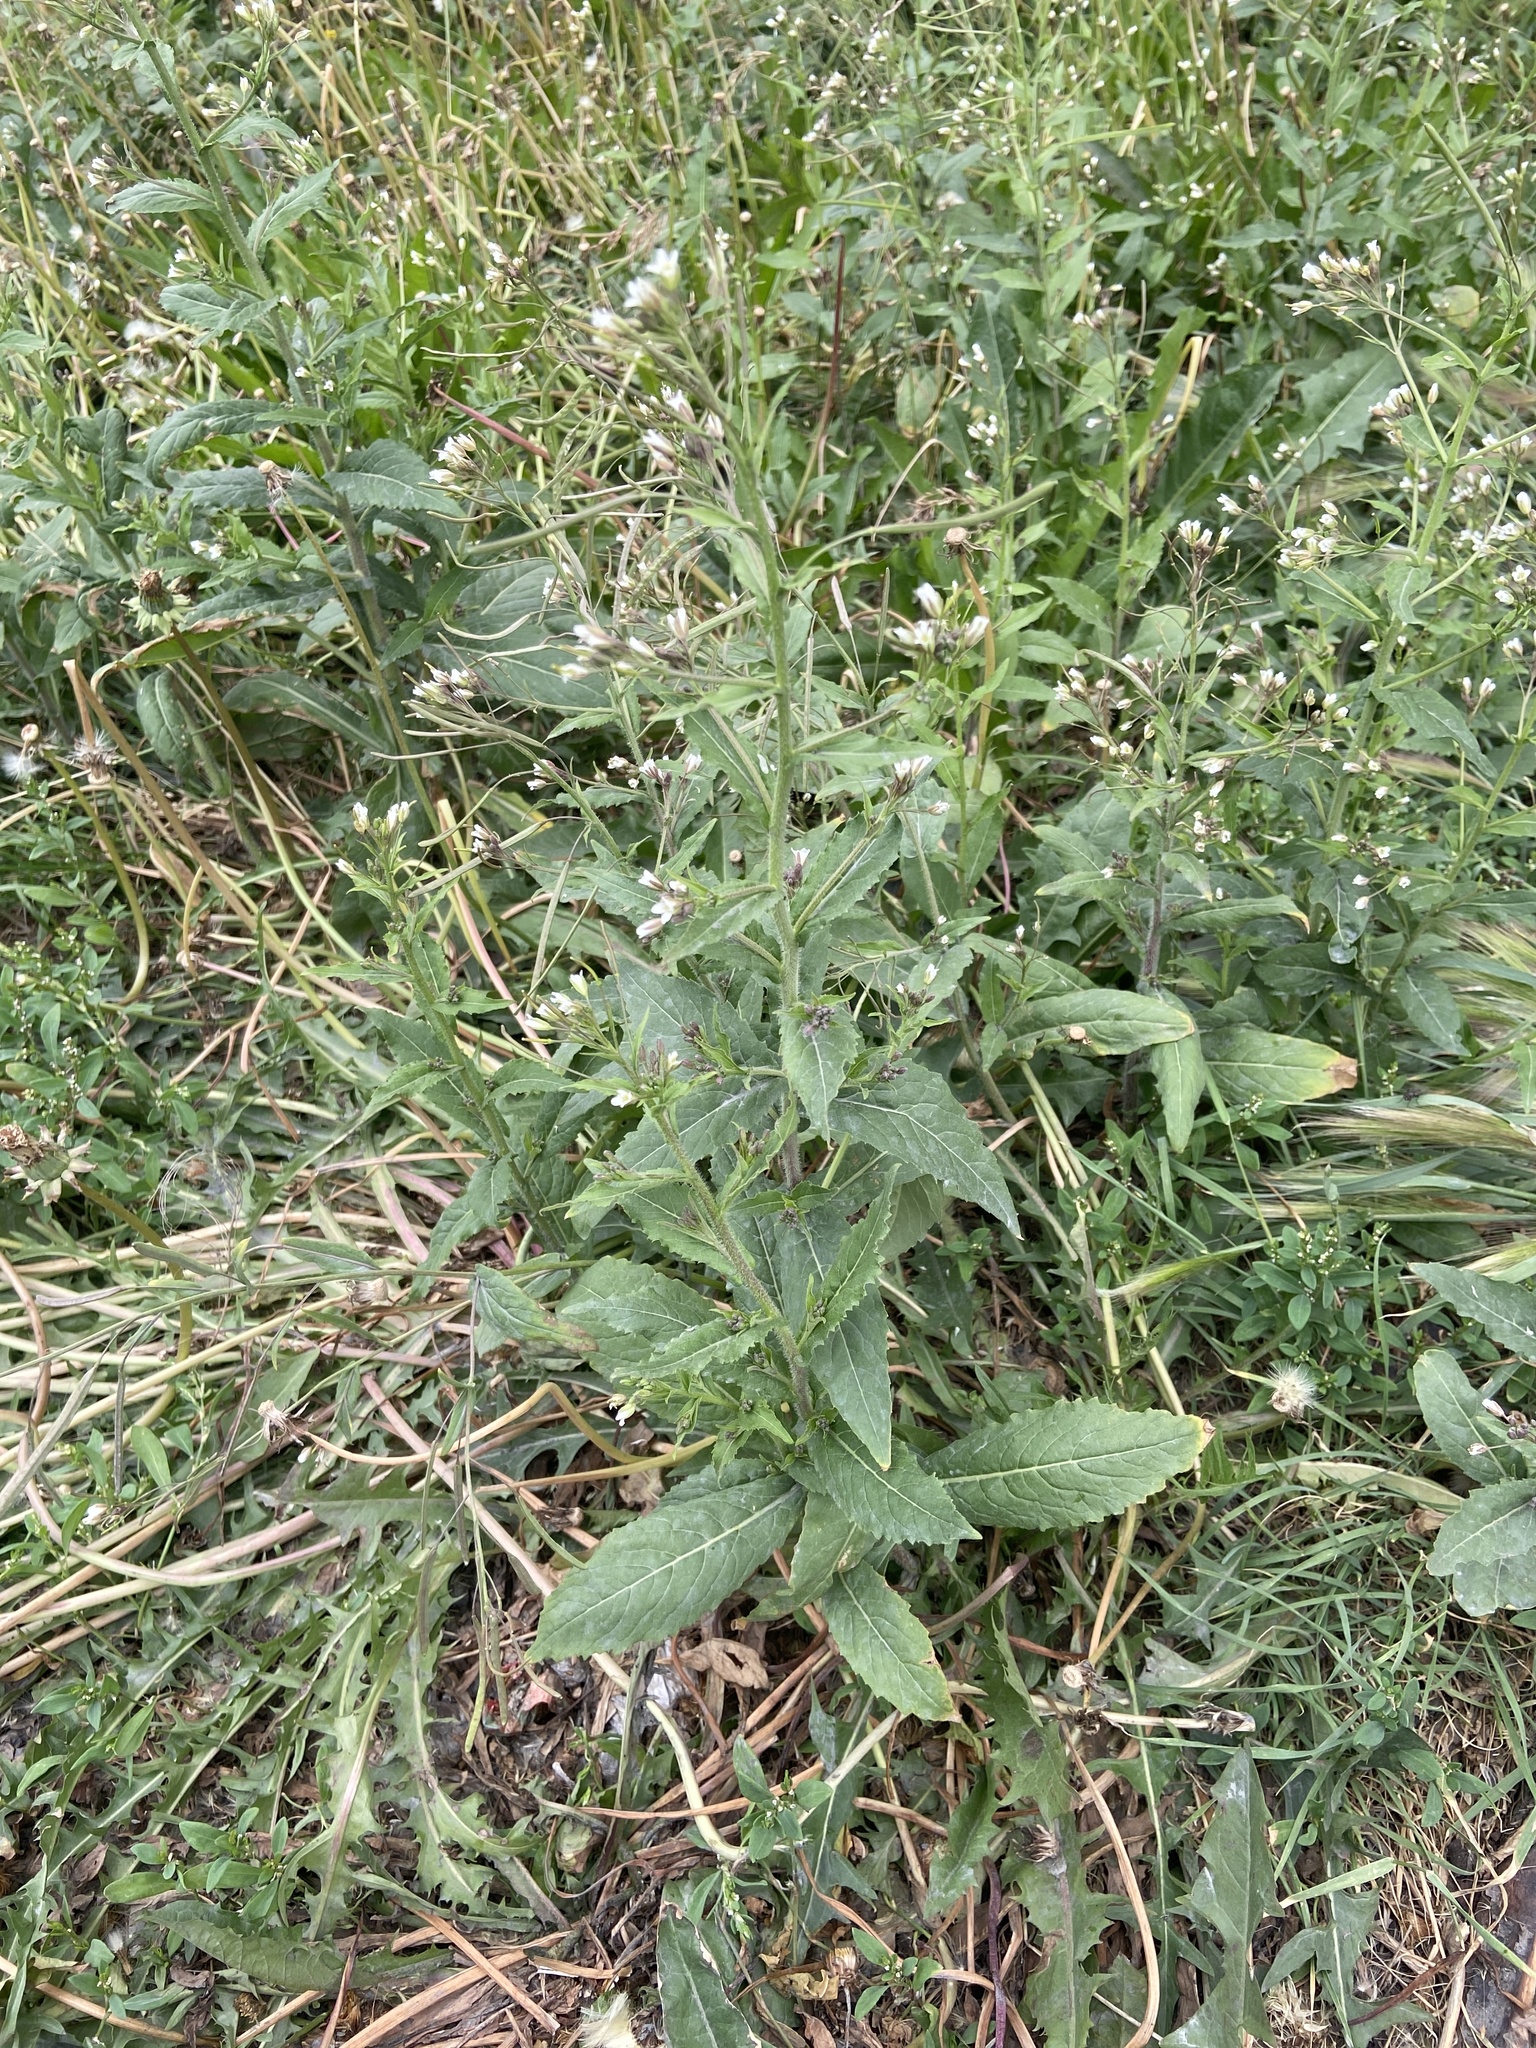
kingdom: Plantae
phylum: Tracheophyta
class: Magnoliopsida
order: Brassicales
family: Brassicaceae
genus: Catolobus
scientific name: Catolobus pendulus
